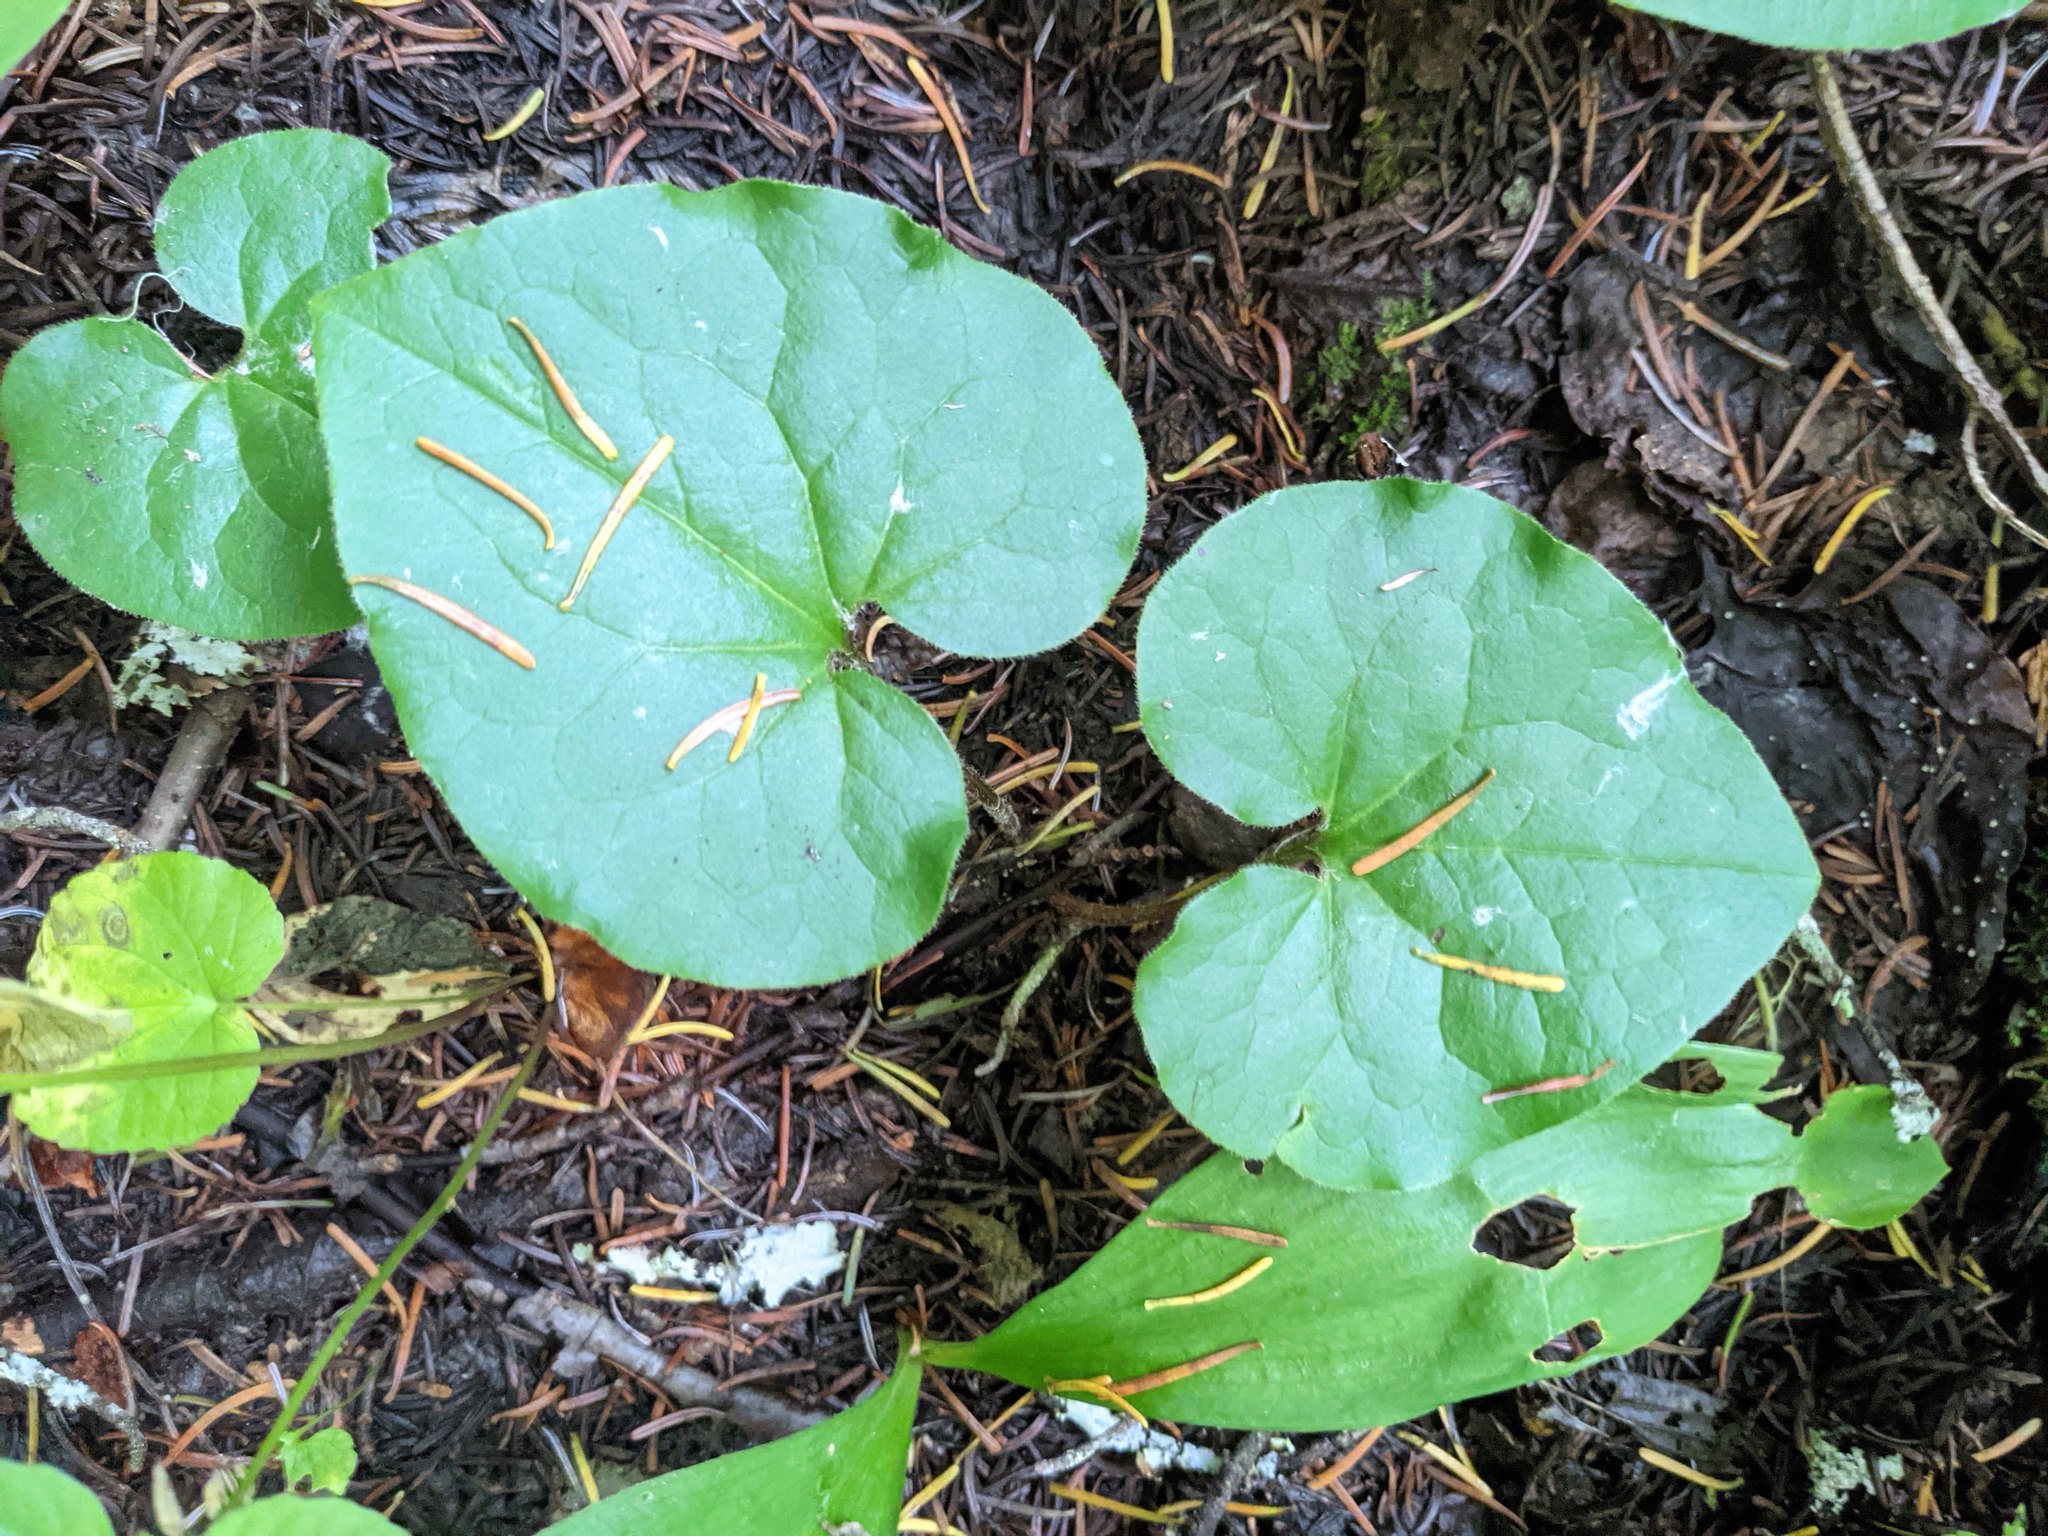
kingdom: Plantae
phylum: Tracheophyta
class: Magnoliopsida
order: Piperales
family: Aristolochiaceae
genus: Asarum
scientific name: Asarum caudatum
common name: Wild ginger
